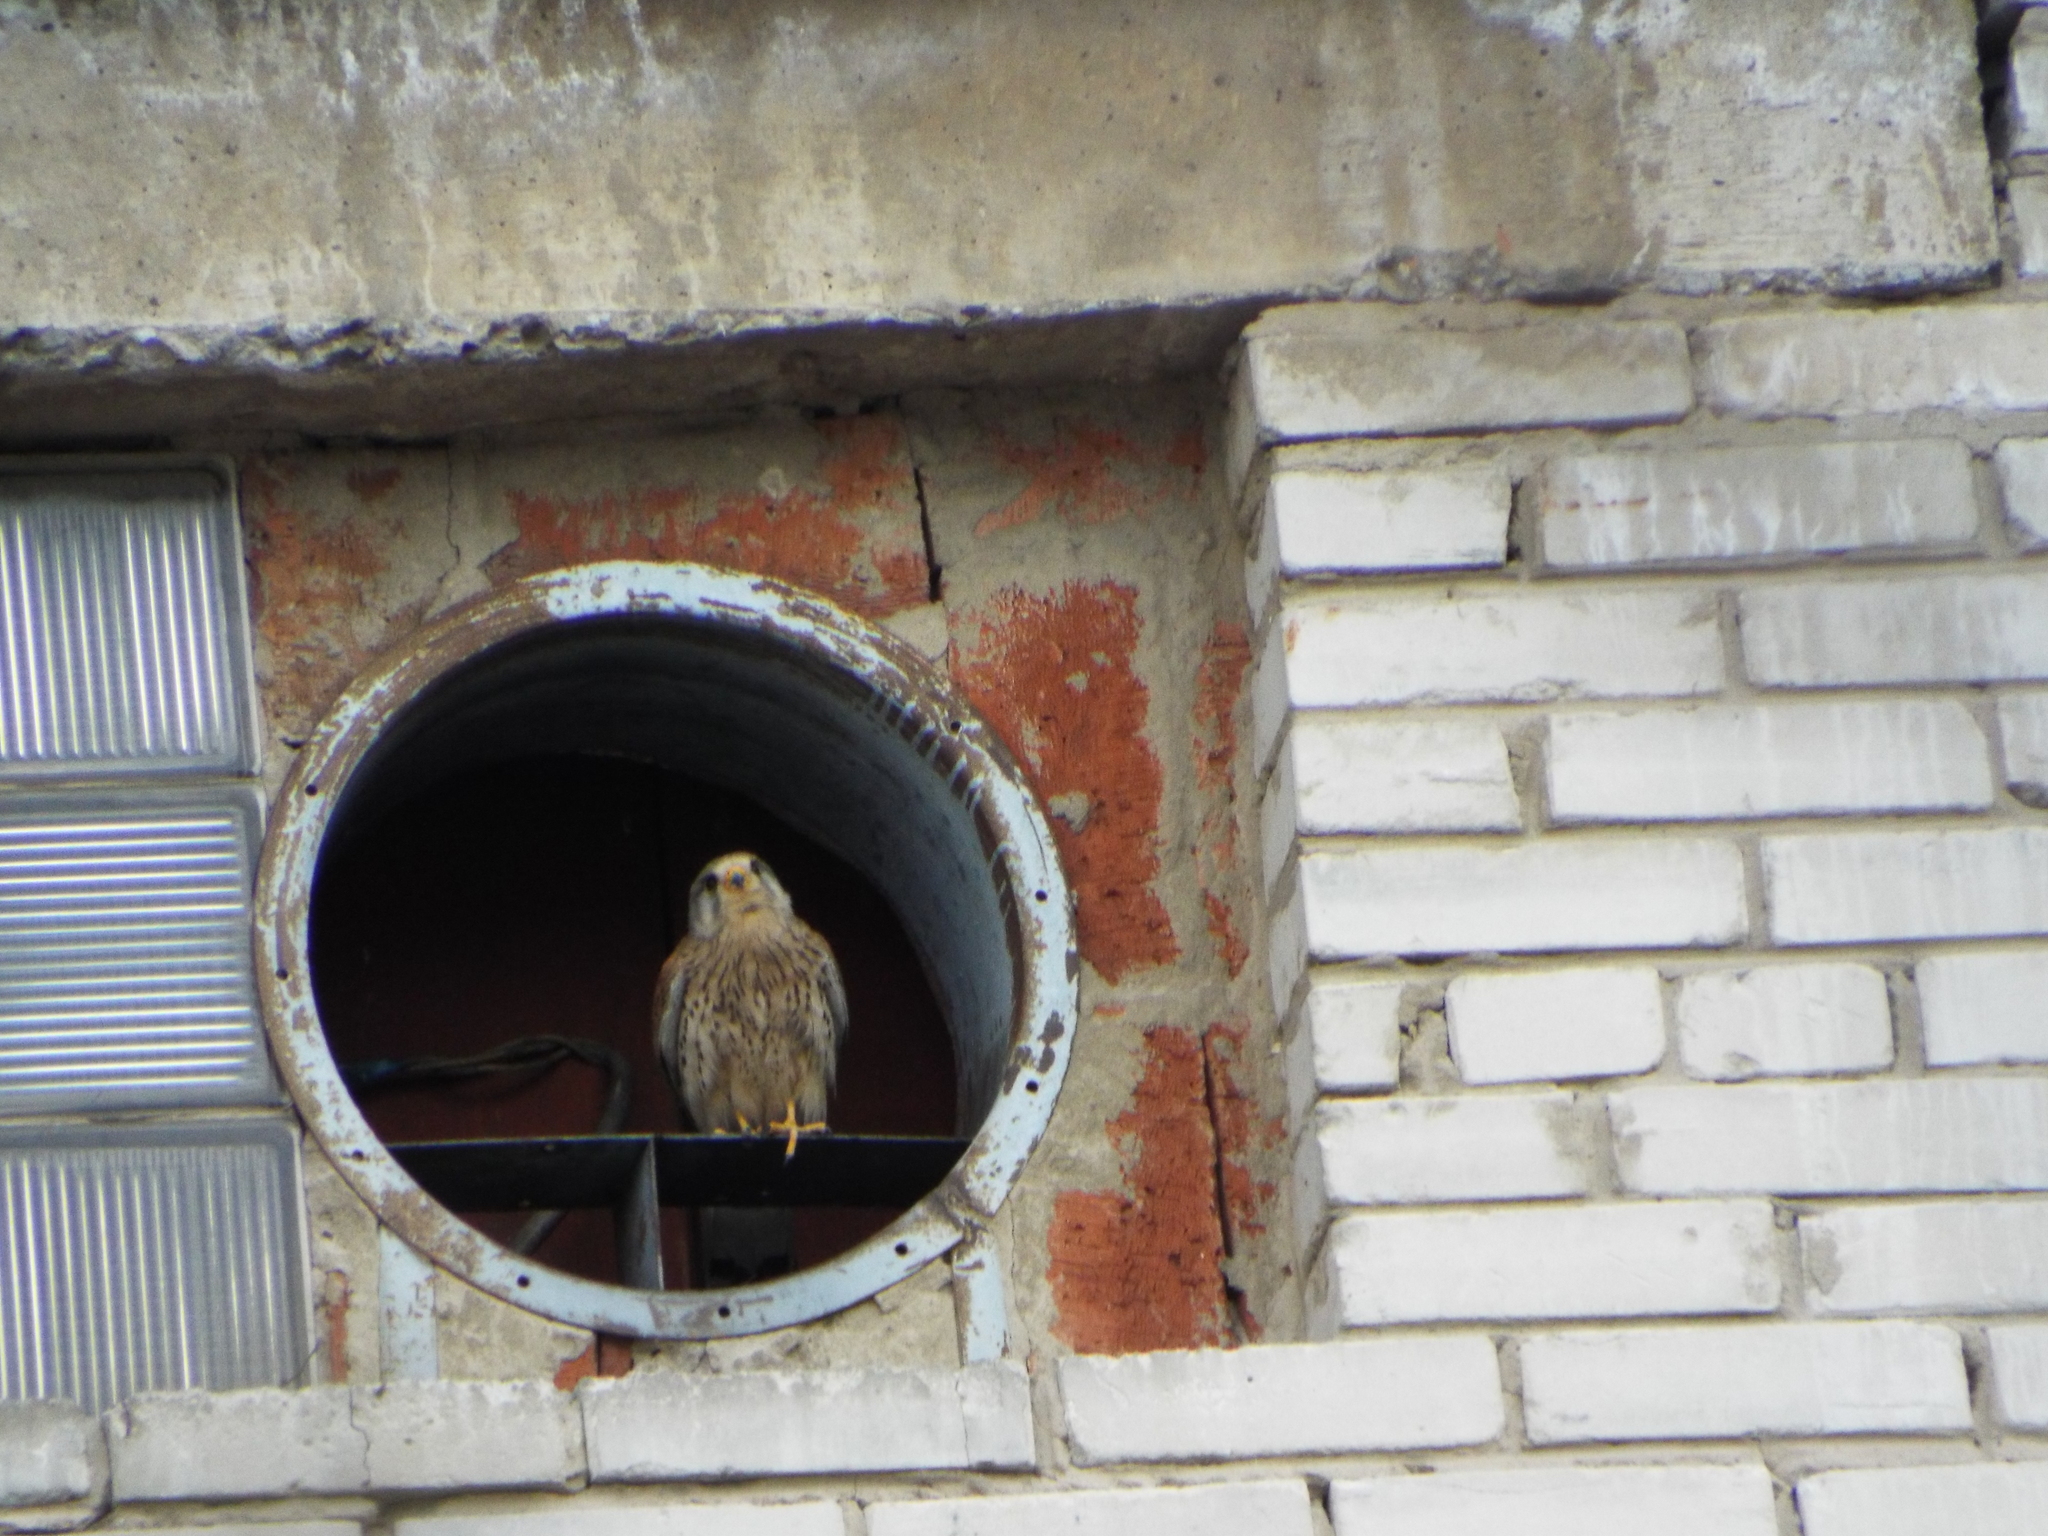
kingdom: Animalia
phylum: Chordata
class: Aves
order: Falconiformes
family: Falconidae
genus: Falco
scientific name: Falco tinnunculus
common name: Common kestrel
